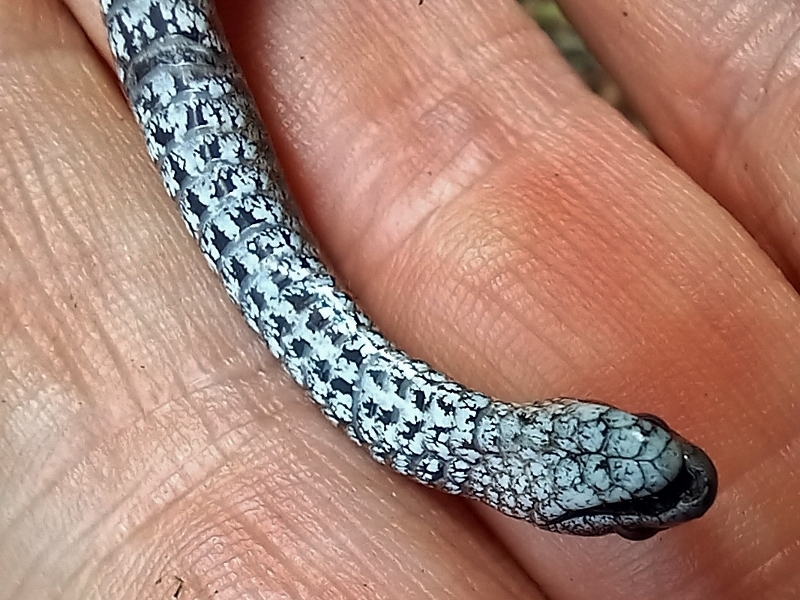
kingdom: Animalia
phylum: Chordata
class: Squamata
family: Pseudoxyrhophiidae
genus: Duberria
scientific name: Duberria rhodesiana
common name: Zimbabwean slug eater
